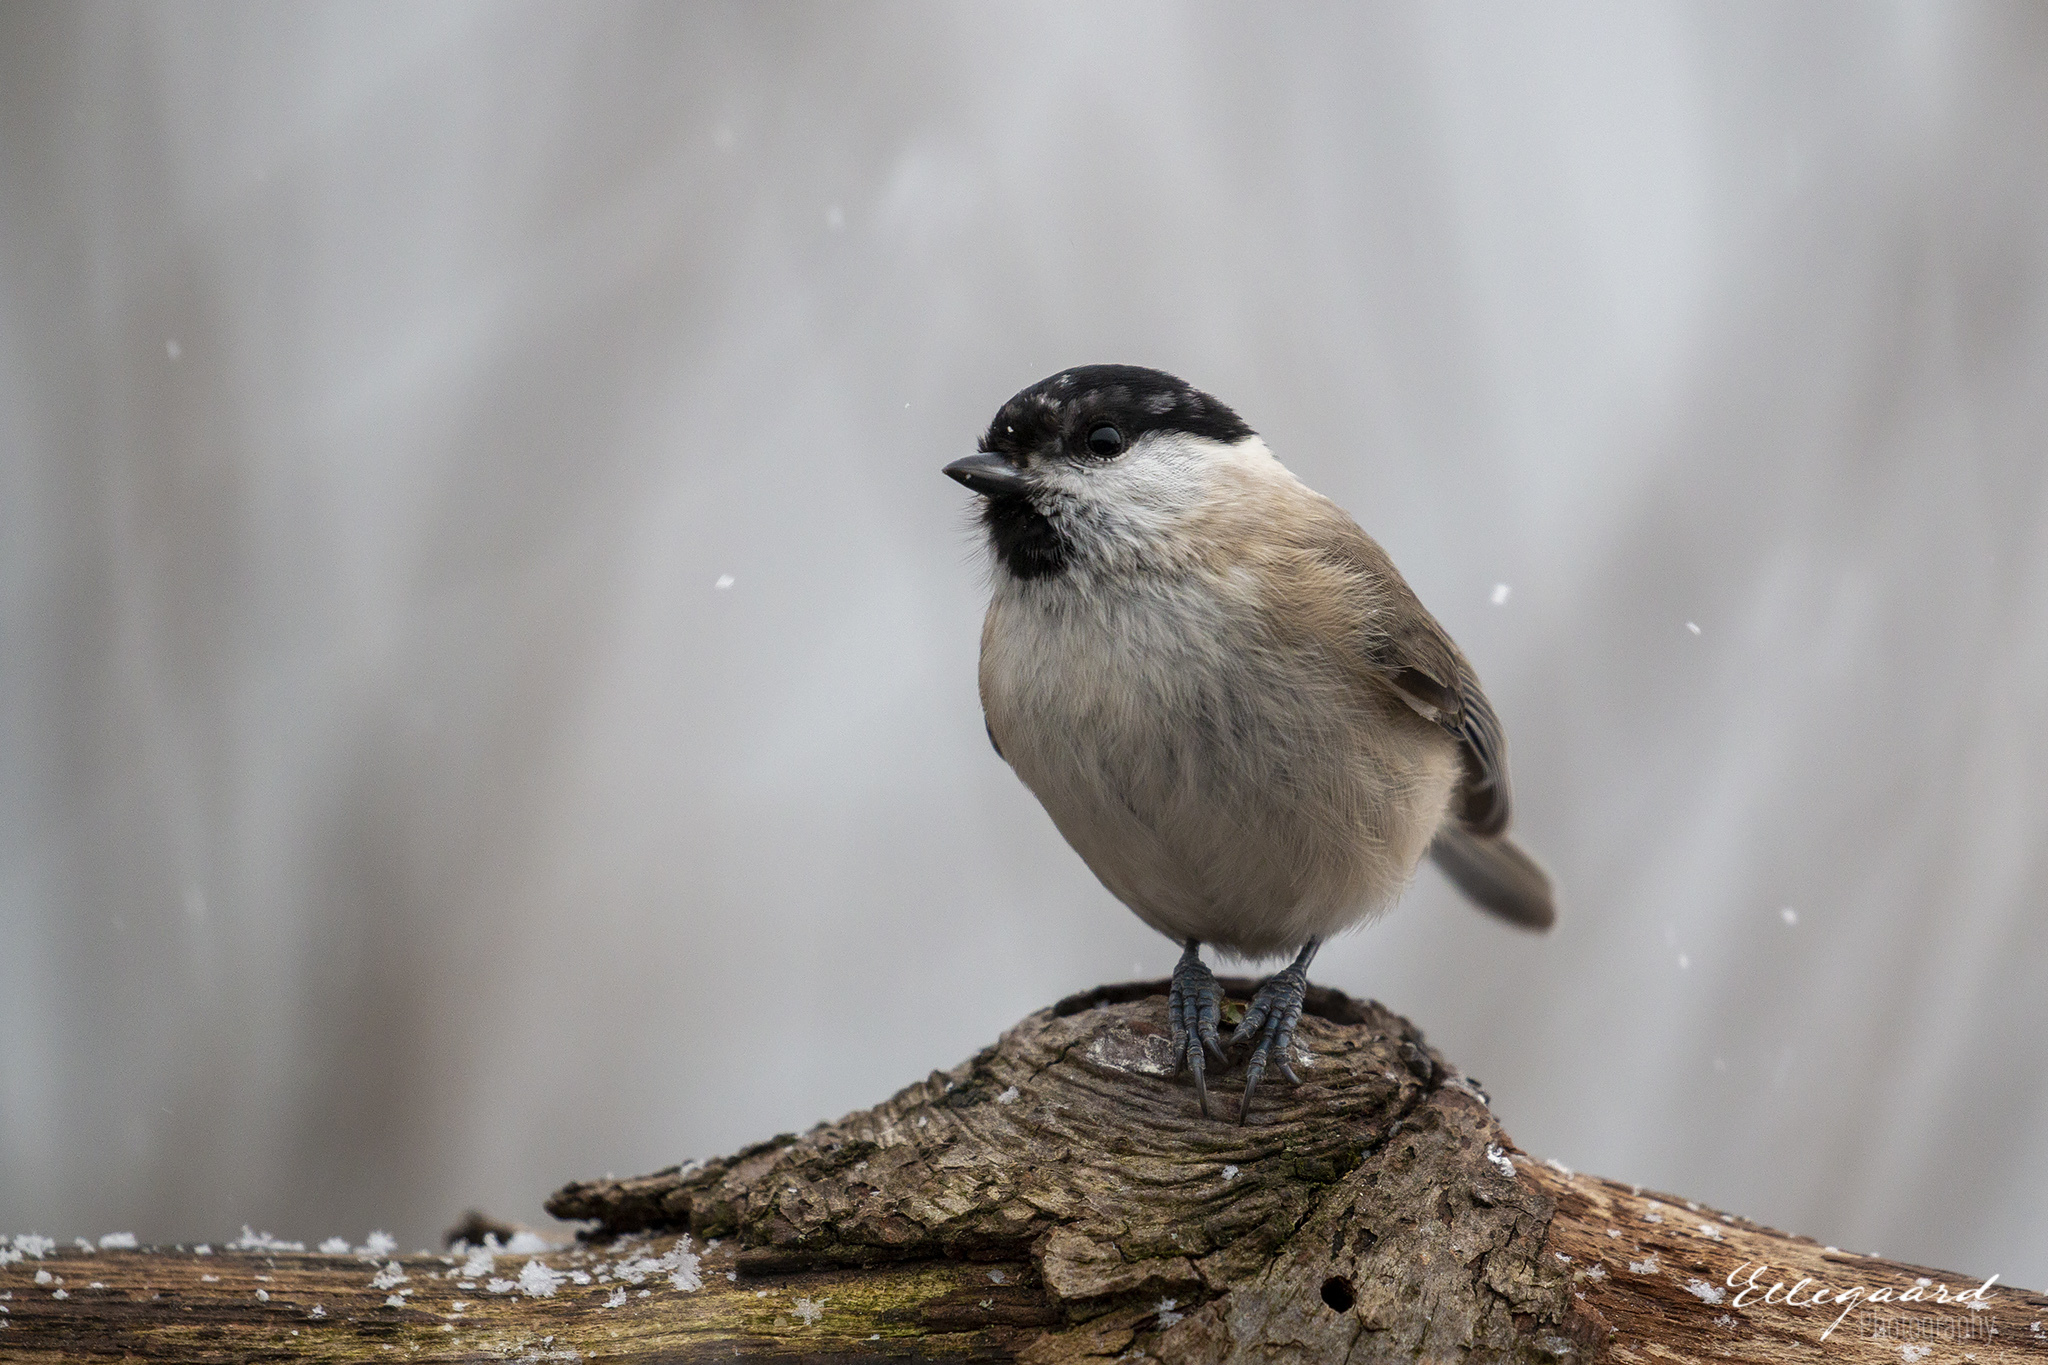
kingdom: Animalia
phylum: Chordata
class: Aves
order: Passeriformes
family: Paridae
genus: Poecile
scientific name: Poecile palustris
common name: Marsh tit
